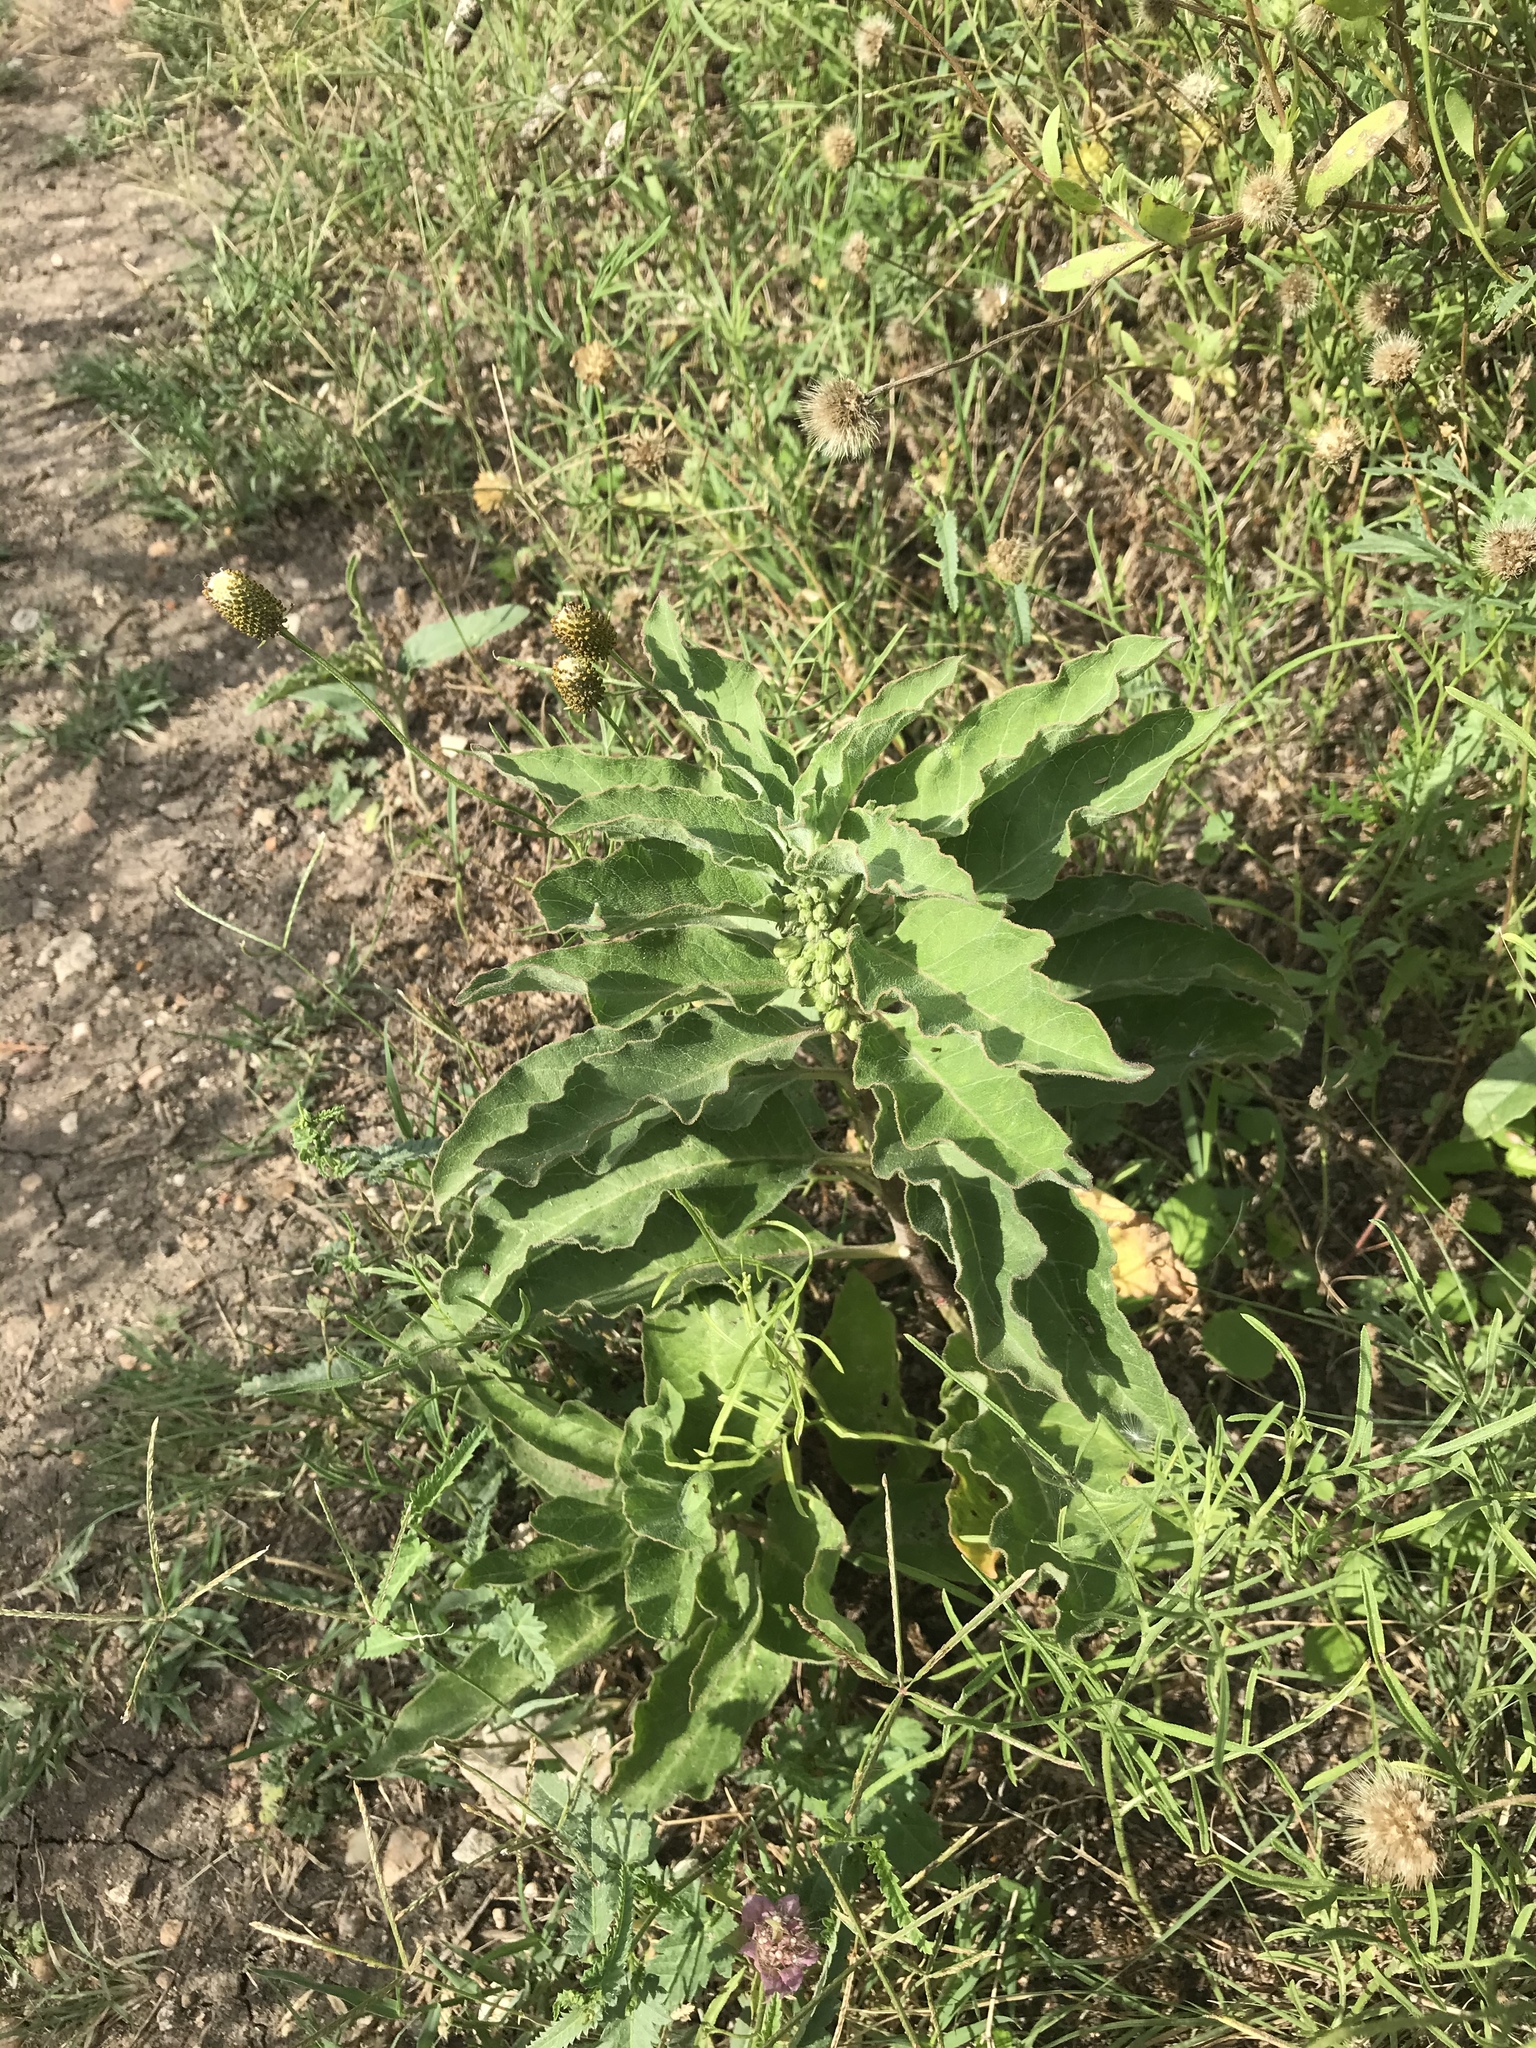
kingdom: Plantae
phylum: Tracheophyta
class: Magnoliopsida
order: Gentianales
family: Apocynaceae
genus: Asclepias
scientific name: Asclepias oenotheroides
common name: Zizotes milkweed
